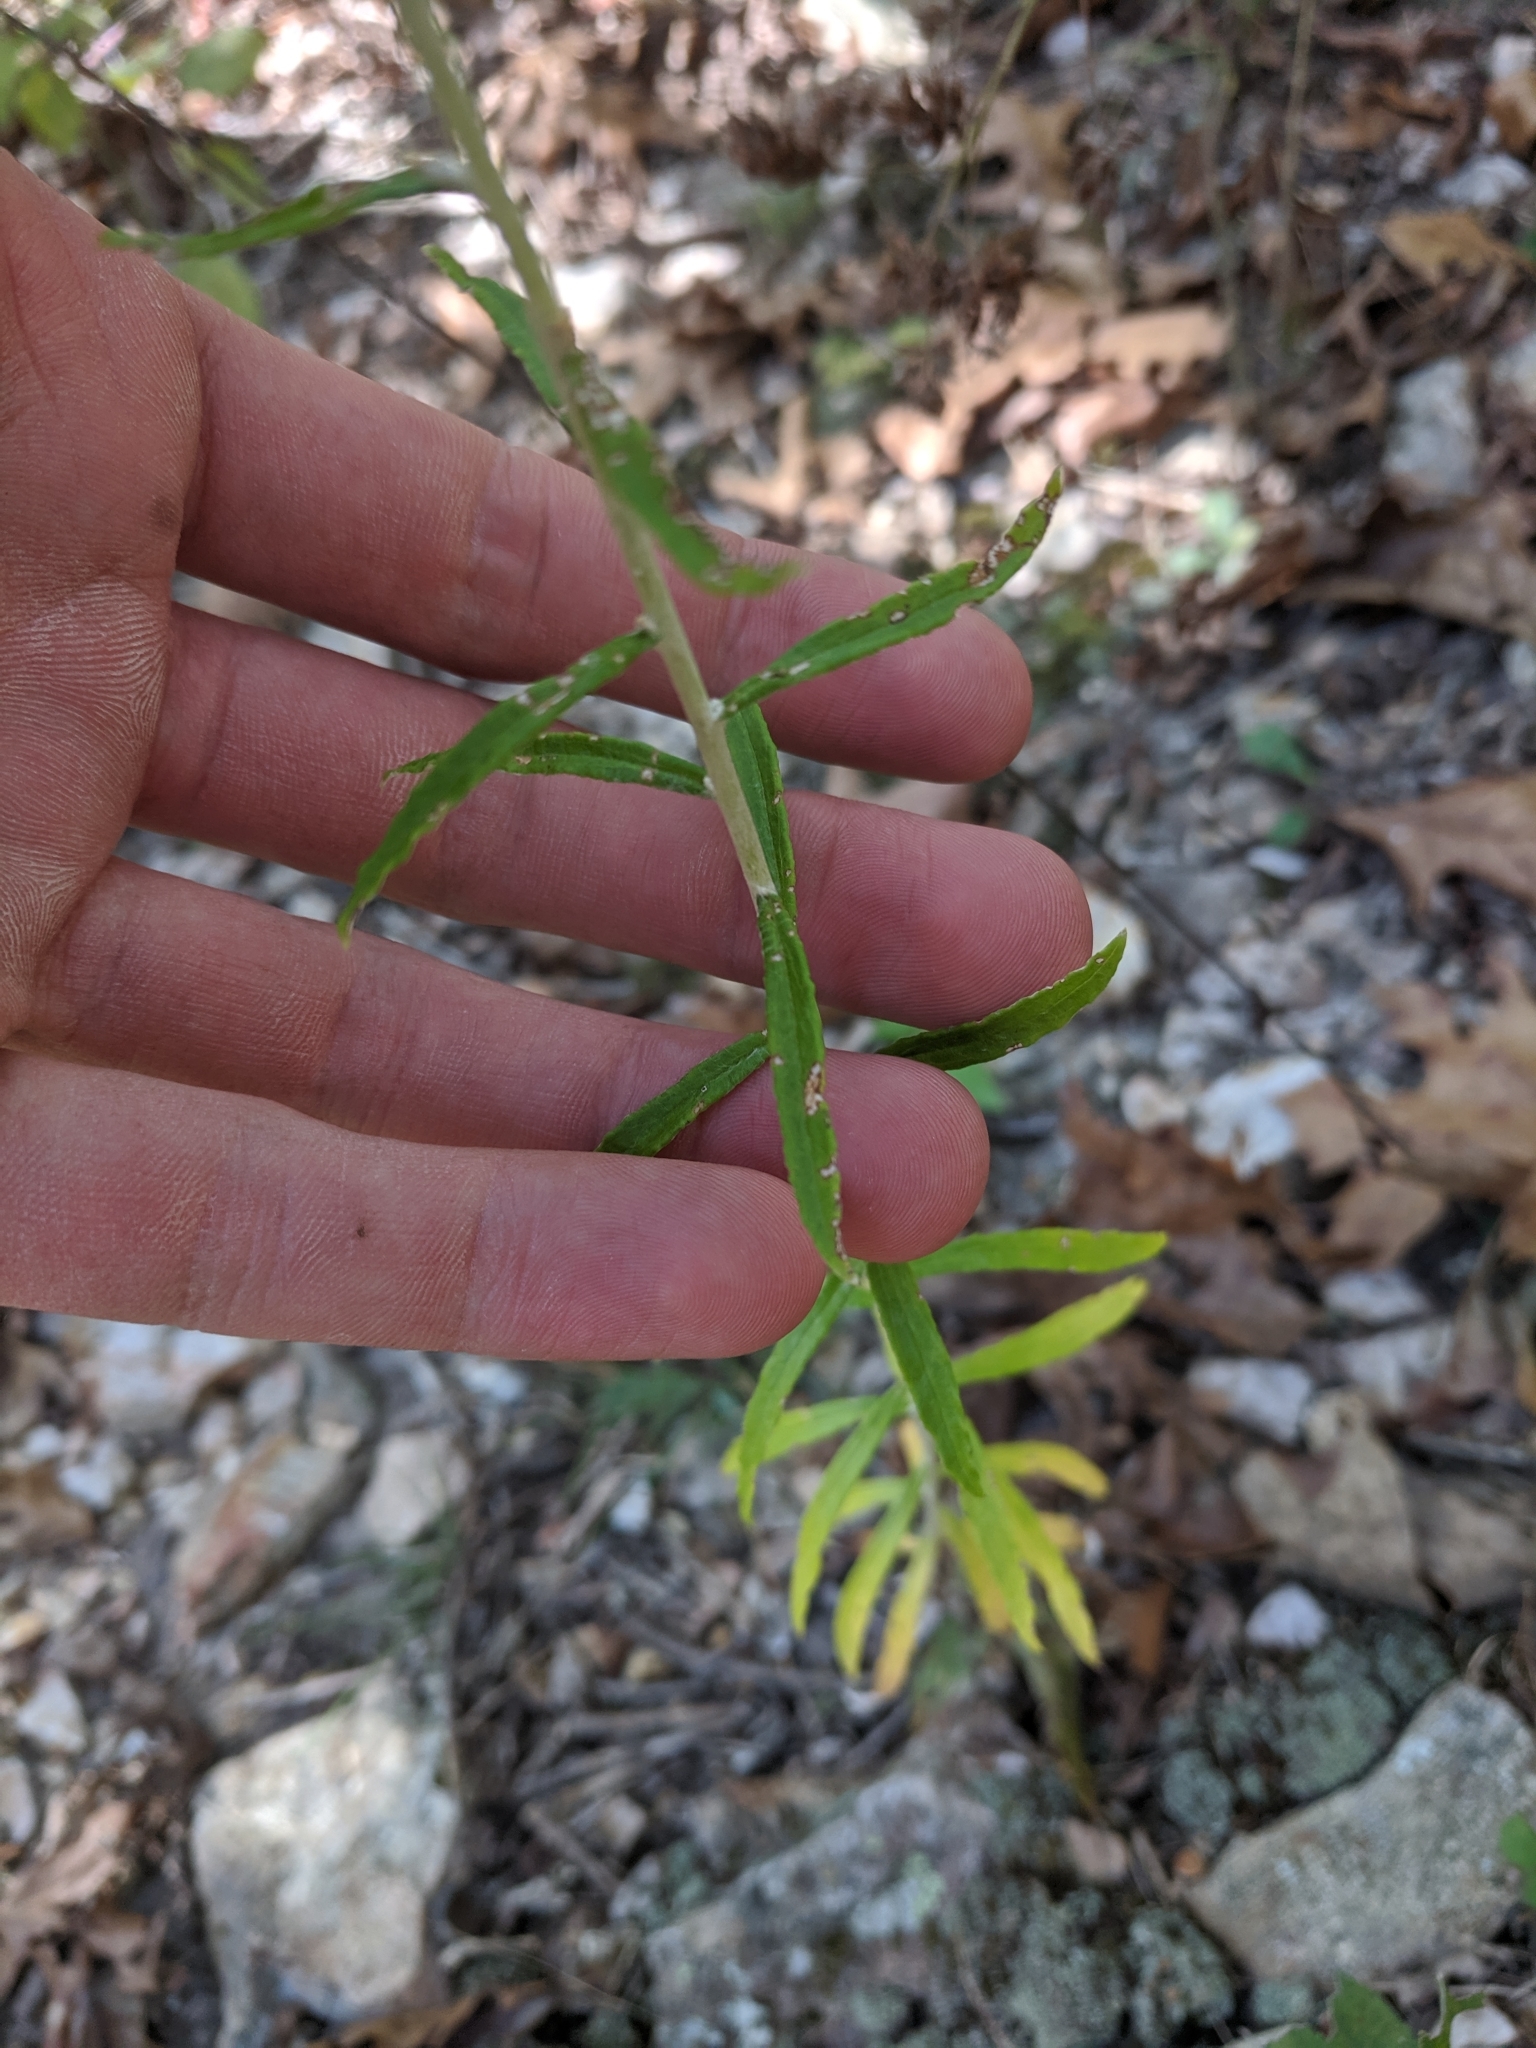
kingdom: Plantae
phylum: Tracheophyta
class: Magnoliopsida
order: Asterales
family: Asteraceae
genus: Pseudognaphalium
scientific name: Pseudognaphalium obtusifolium
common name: Eastern rabbit-tobacco
